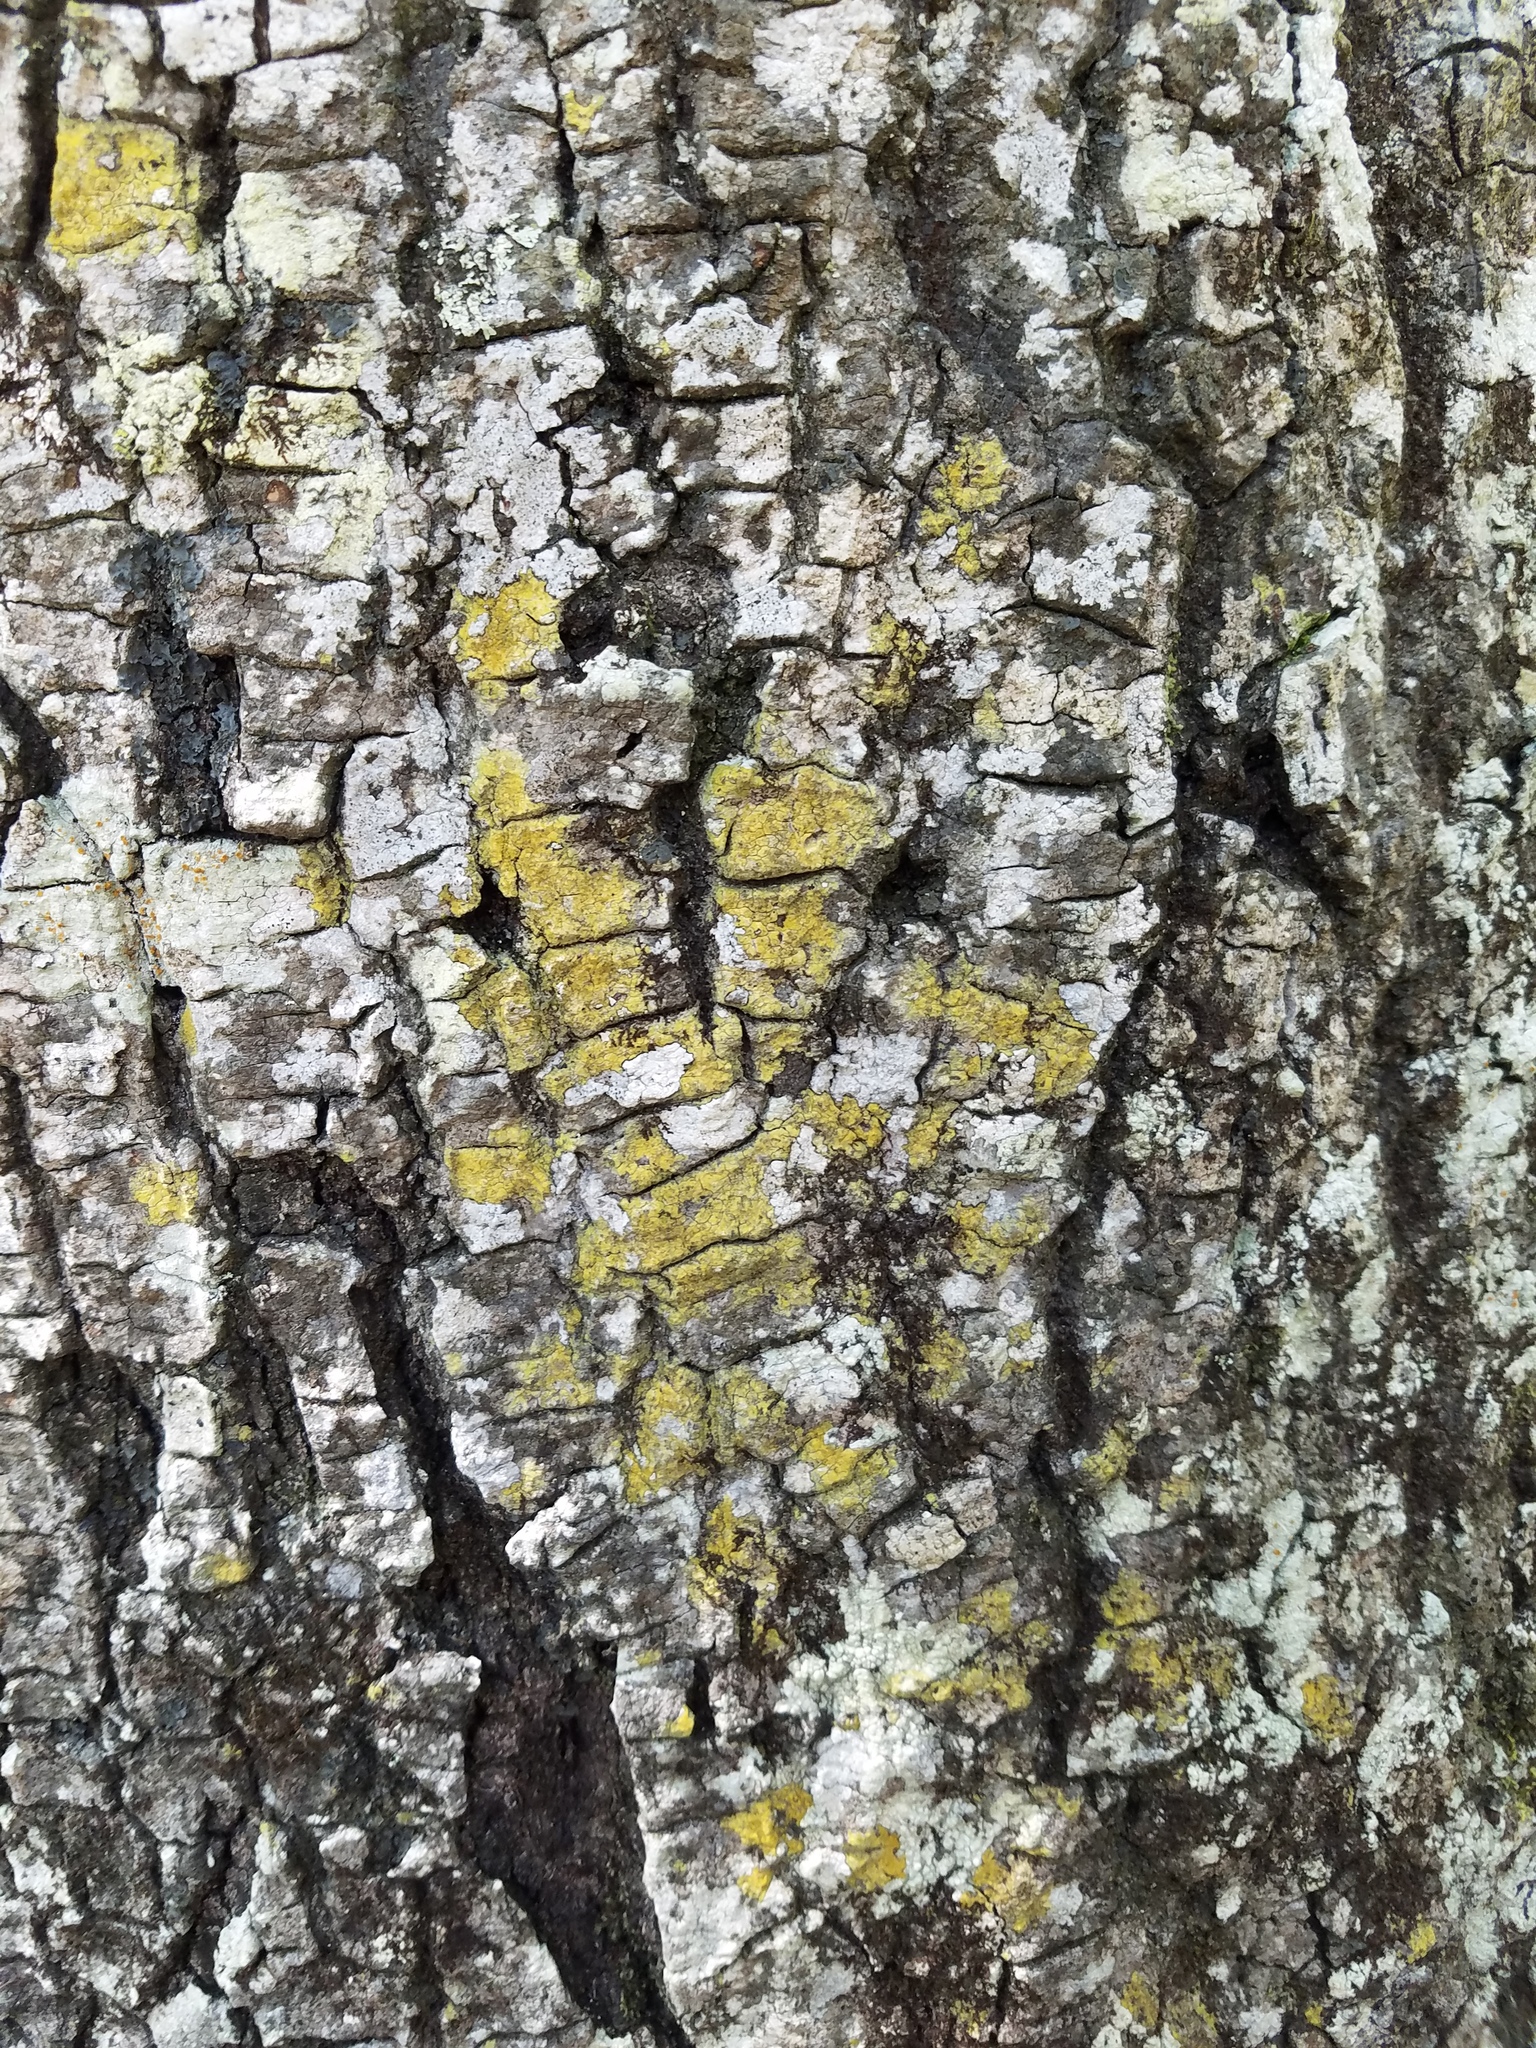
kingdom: Fungi
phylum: Ascomycota
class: Lecanoromycetes
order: Teloschistales
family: Teloschistaceae
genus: Lacrima
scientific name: Lacrima epiphora
